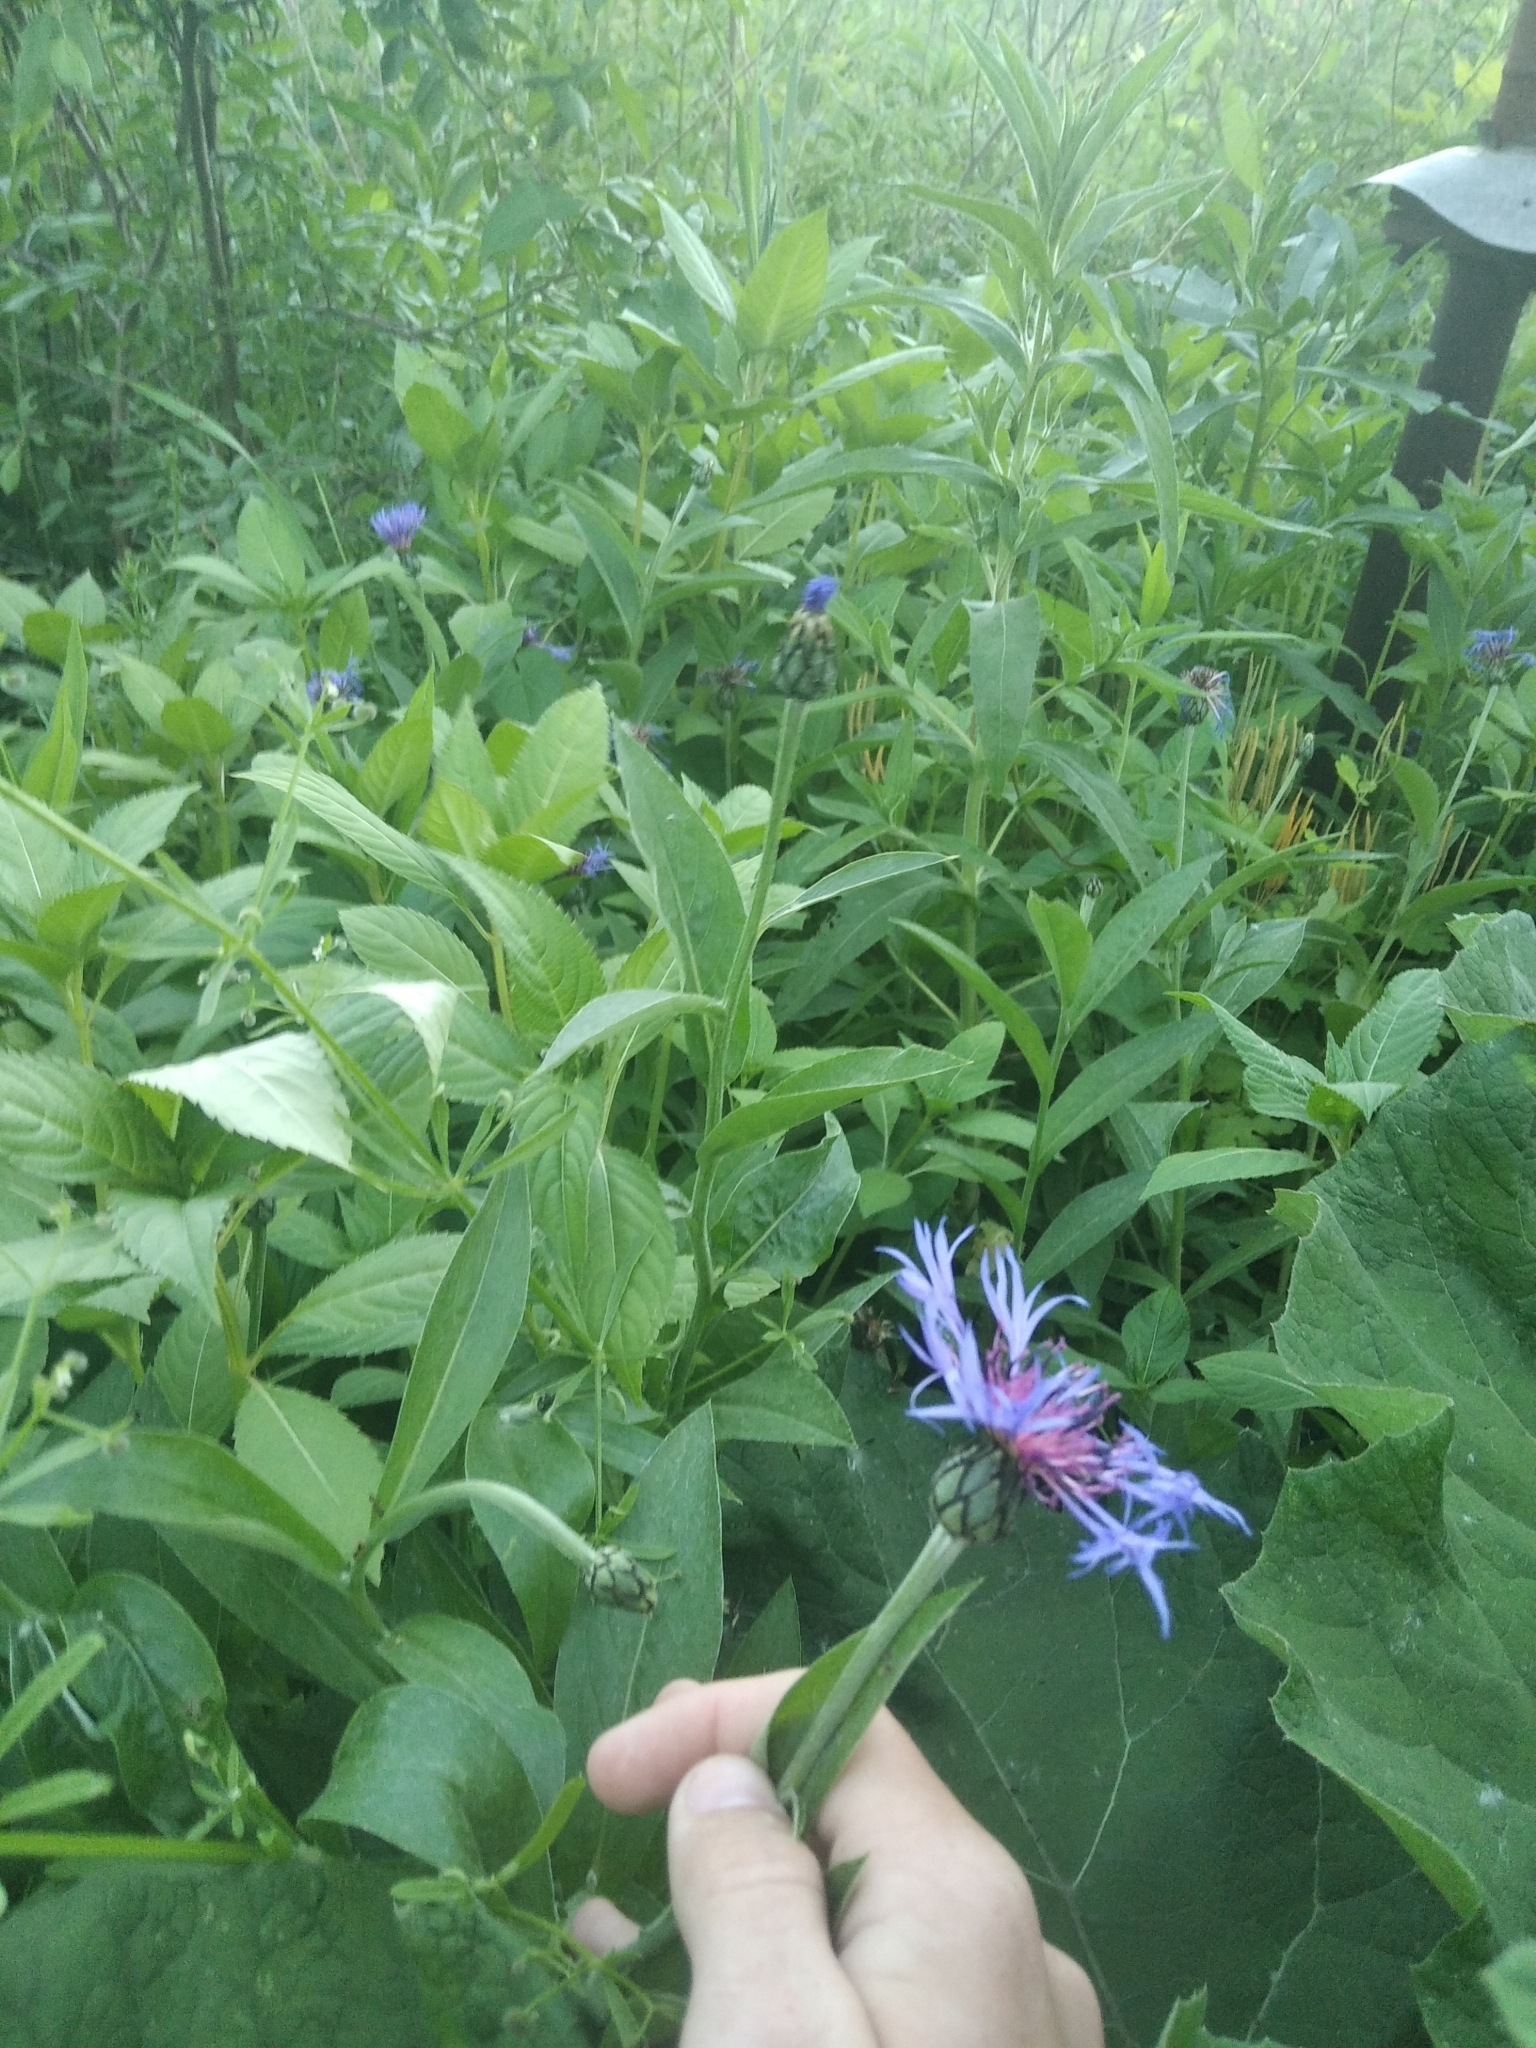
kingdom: Plantae
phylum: Tracheophyta
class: Magnoliopsida
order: Asterales
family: Asteraceae
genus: Centaurea
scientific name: Centaurea montana
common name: Perennial cornflower
